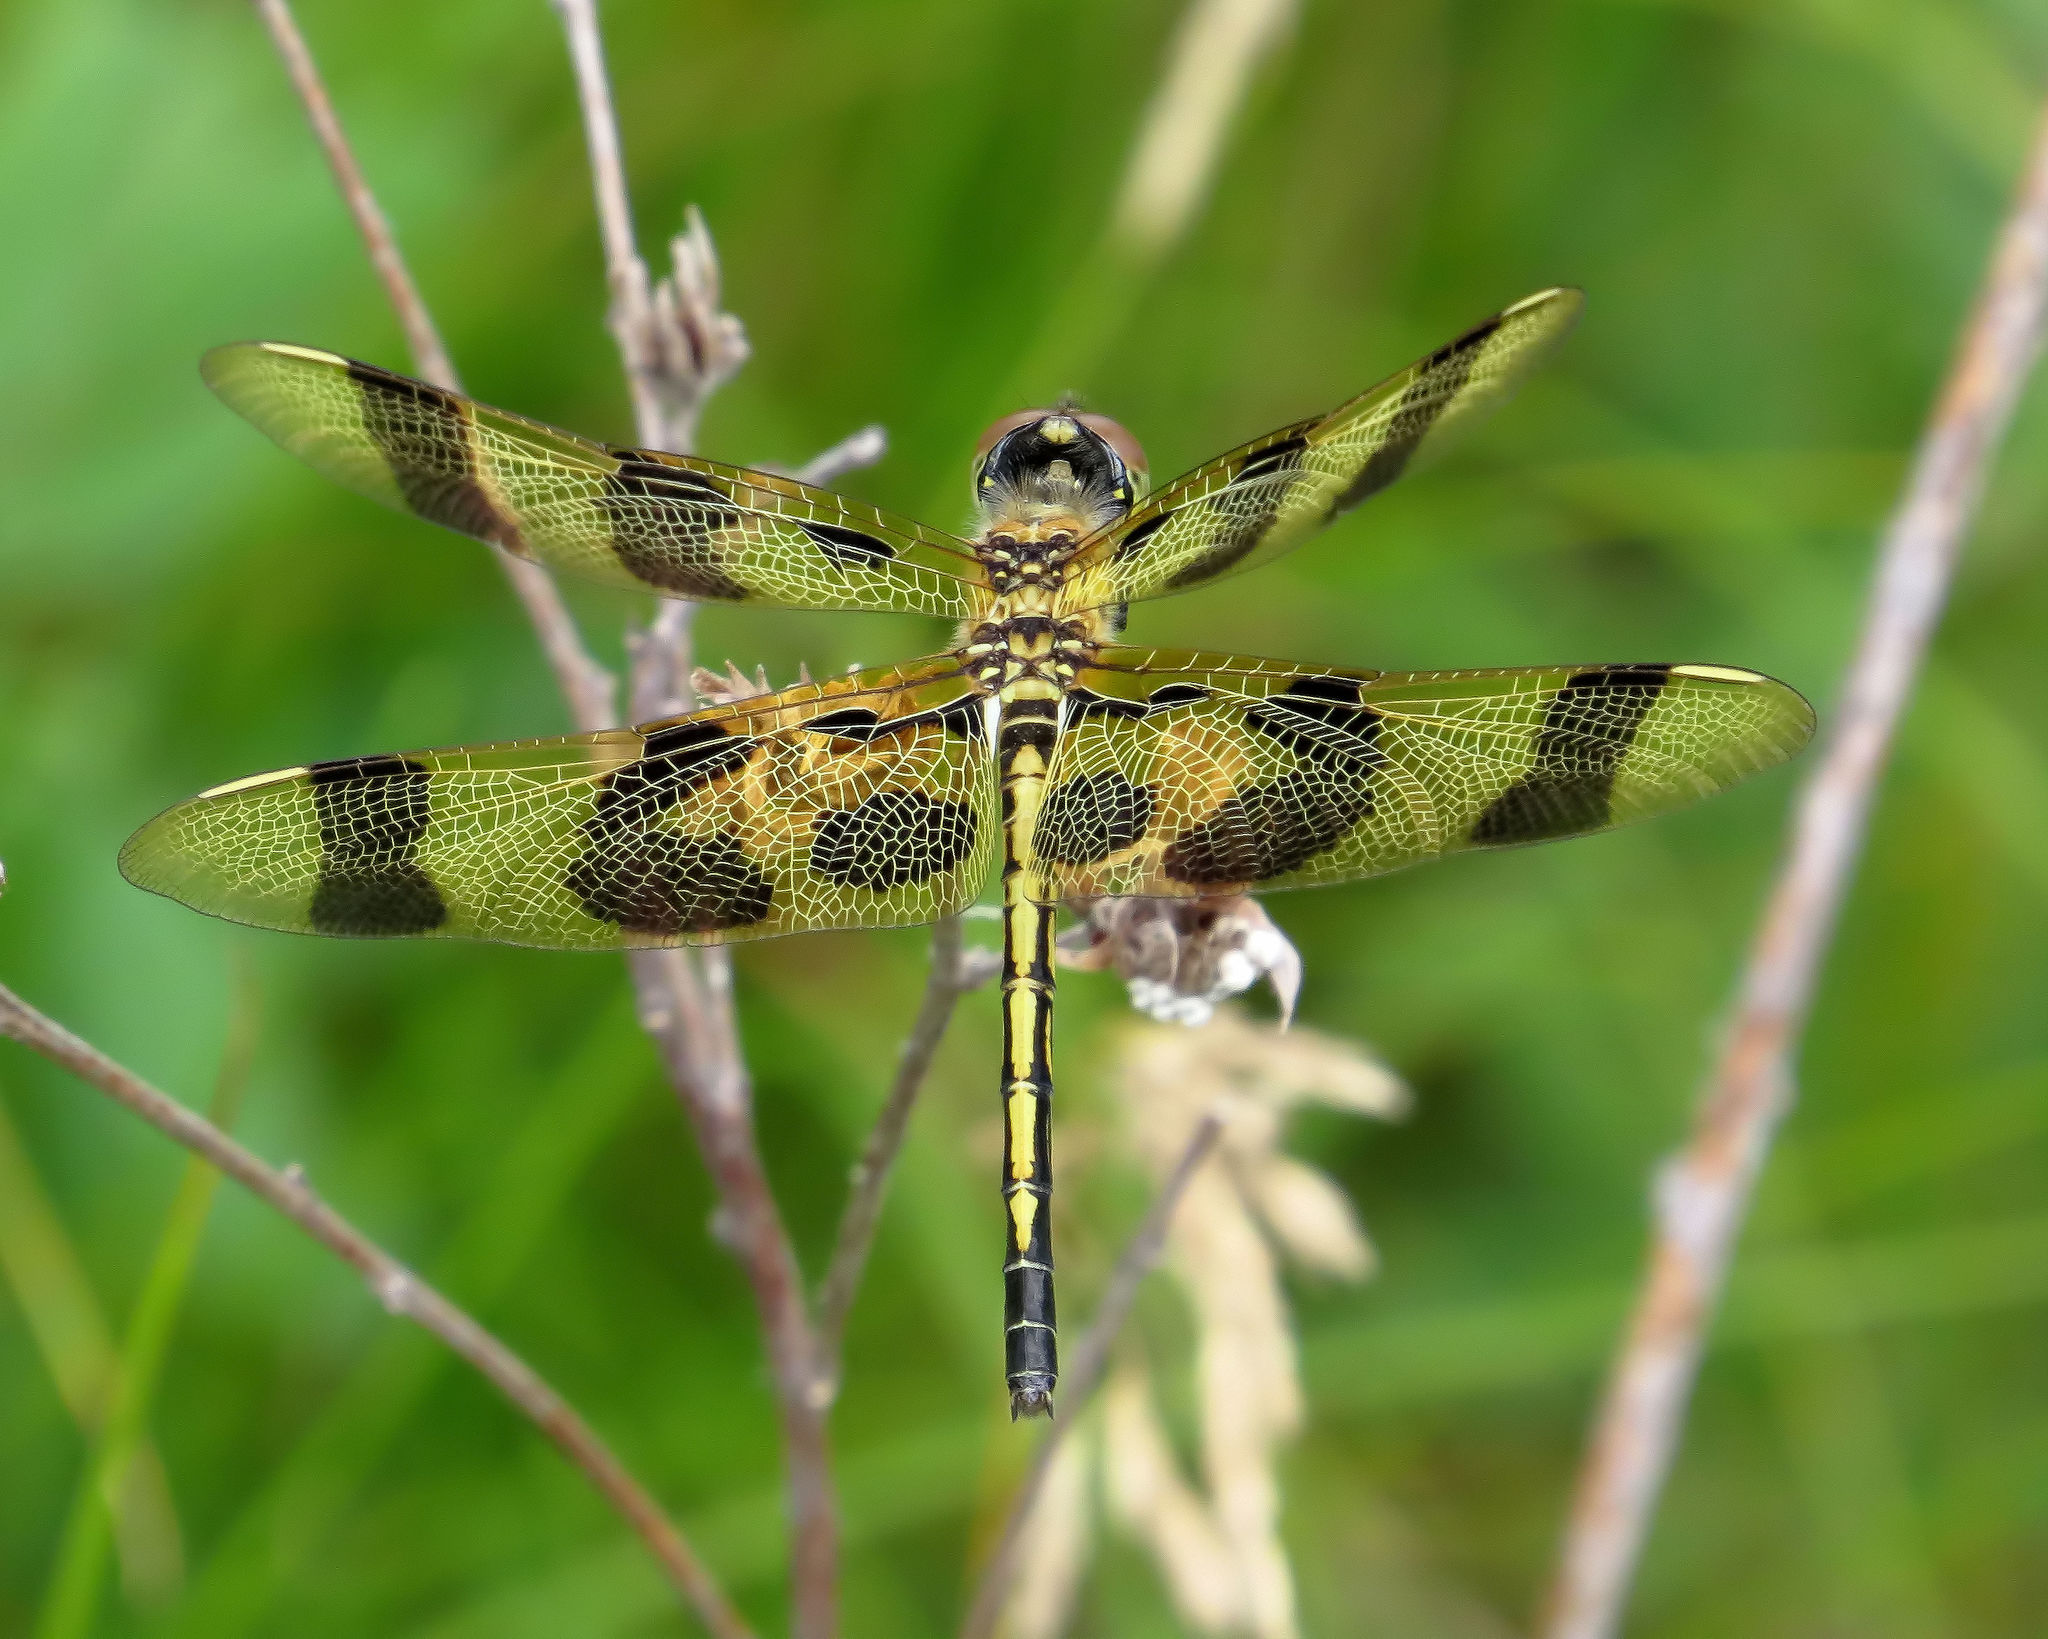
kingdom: Animalia
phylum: Arthropoda
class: Insecta
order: Odonata
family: Libellulidae
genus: Celithemis
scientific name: Celithemis eponina
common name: Halloween pennant
